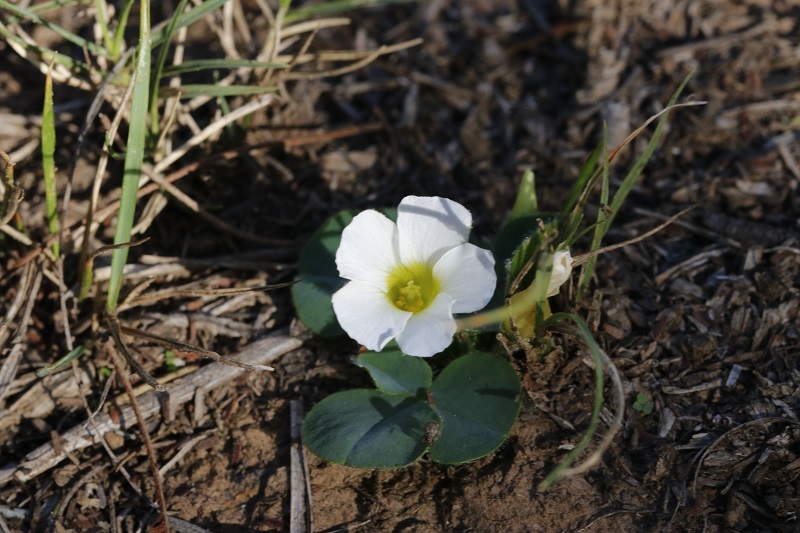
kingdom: Plantae
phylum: Tracheophyta
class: Magnoliopsida
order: Oxalidales
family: Oxalidaceae
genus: Oxalis
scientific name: Oxalis purpurea
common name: Purple woodsorrel
